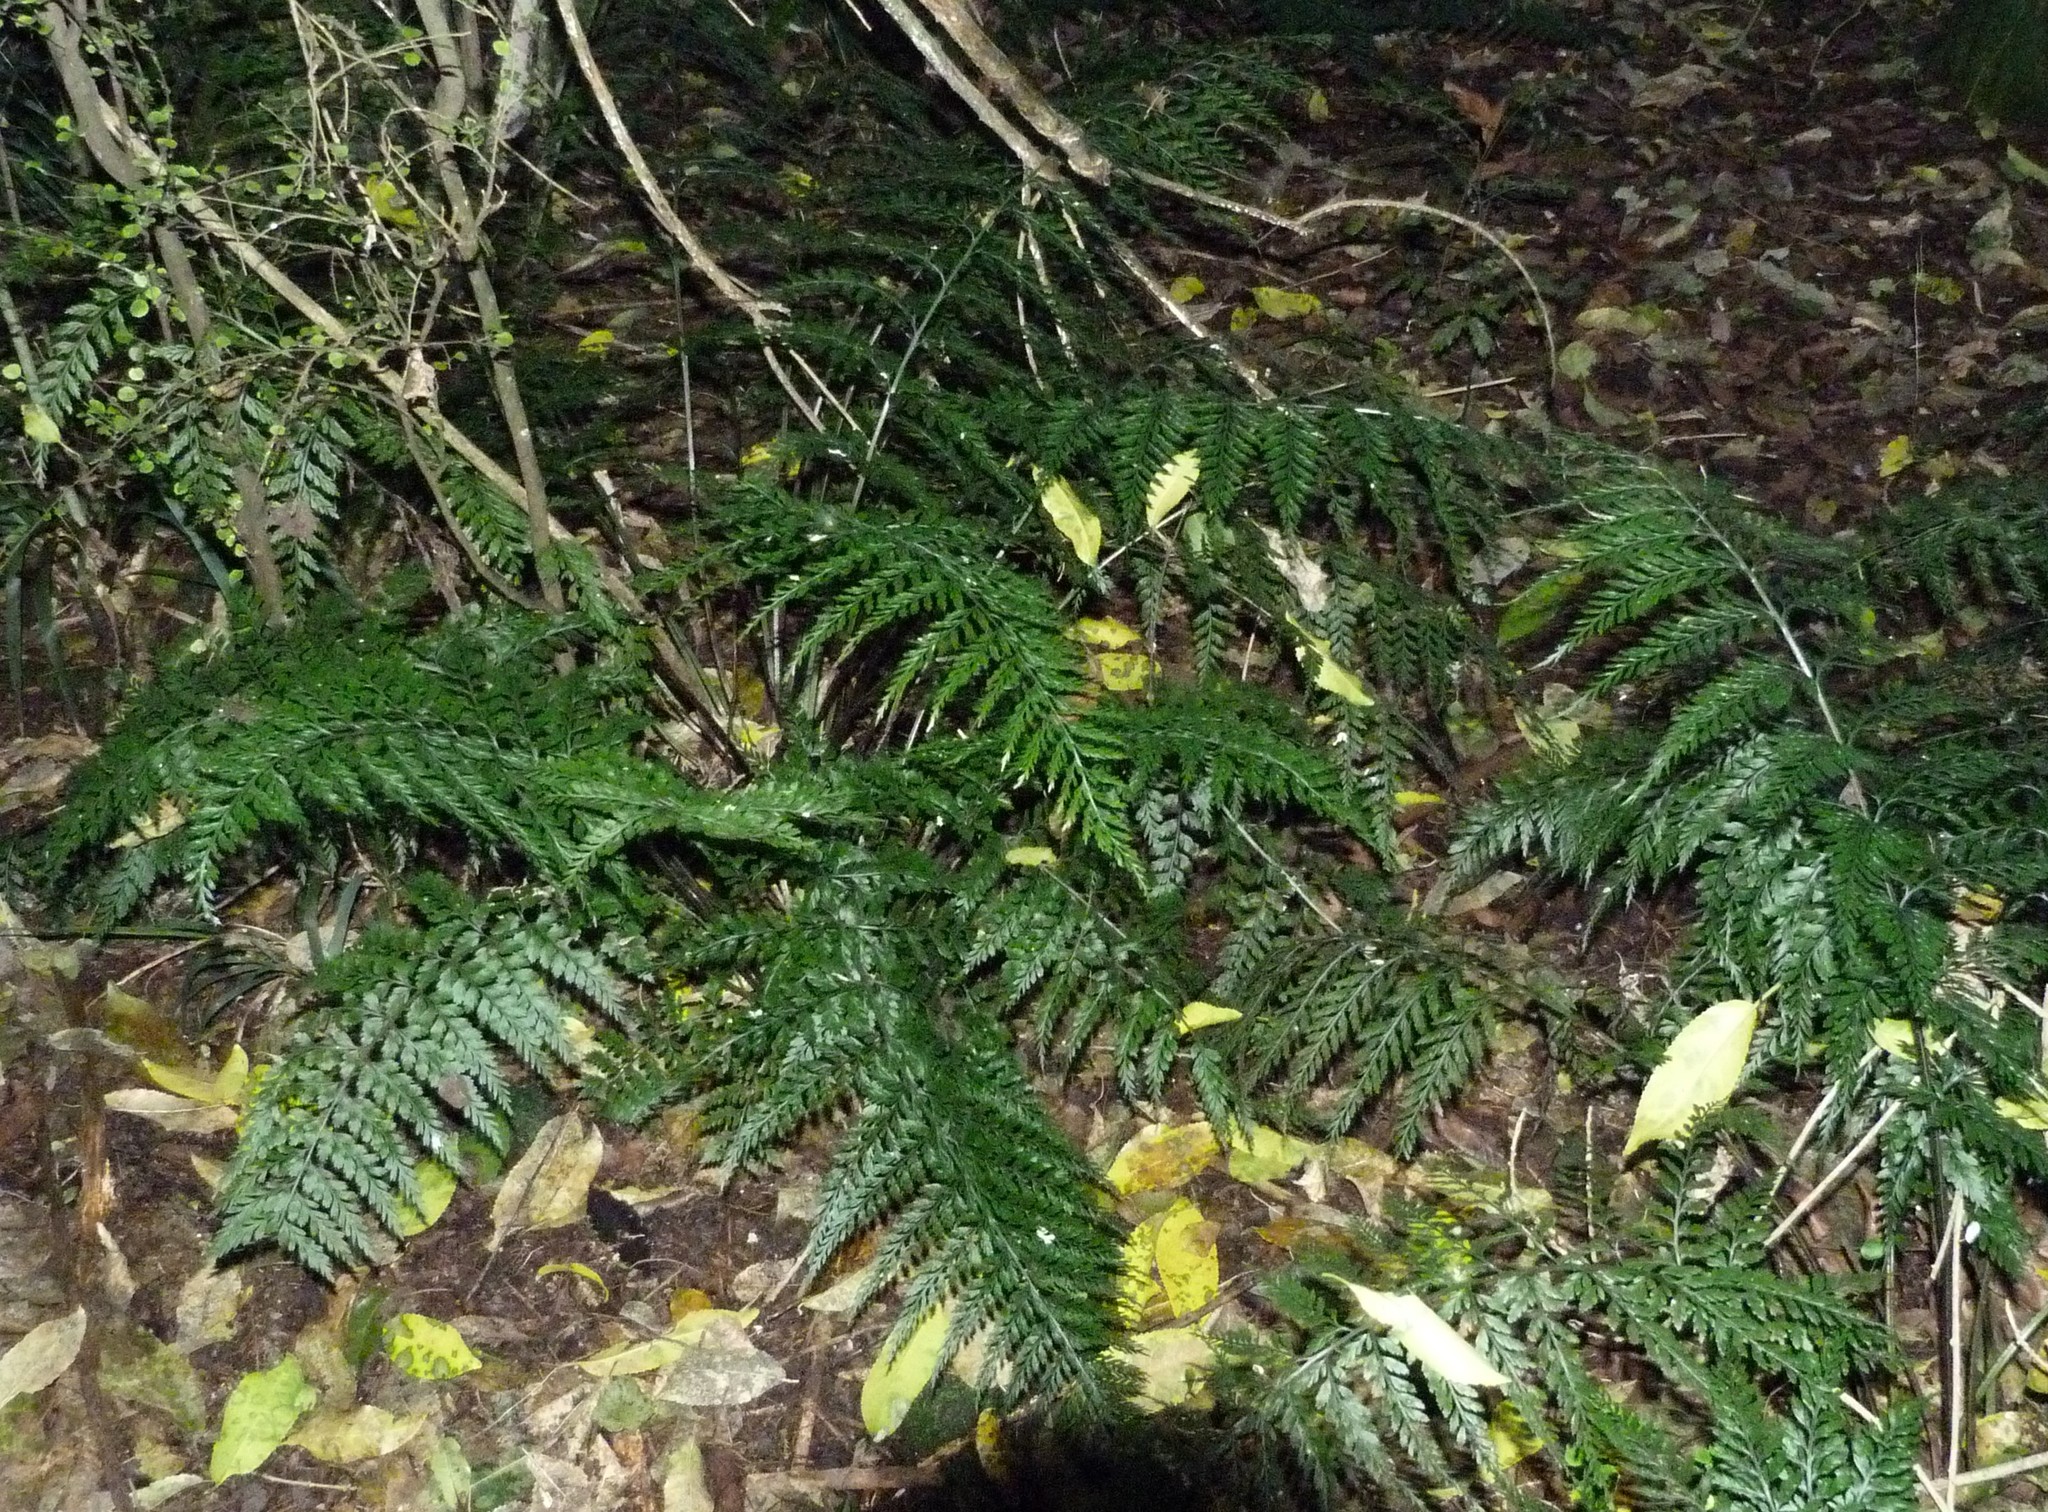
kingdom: Plantae
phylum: Tracheophyta
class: Polypodiopsida
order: Polypodiales
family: Aspleniaceae
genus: Asplenium
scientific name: Asplenium
